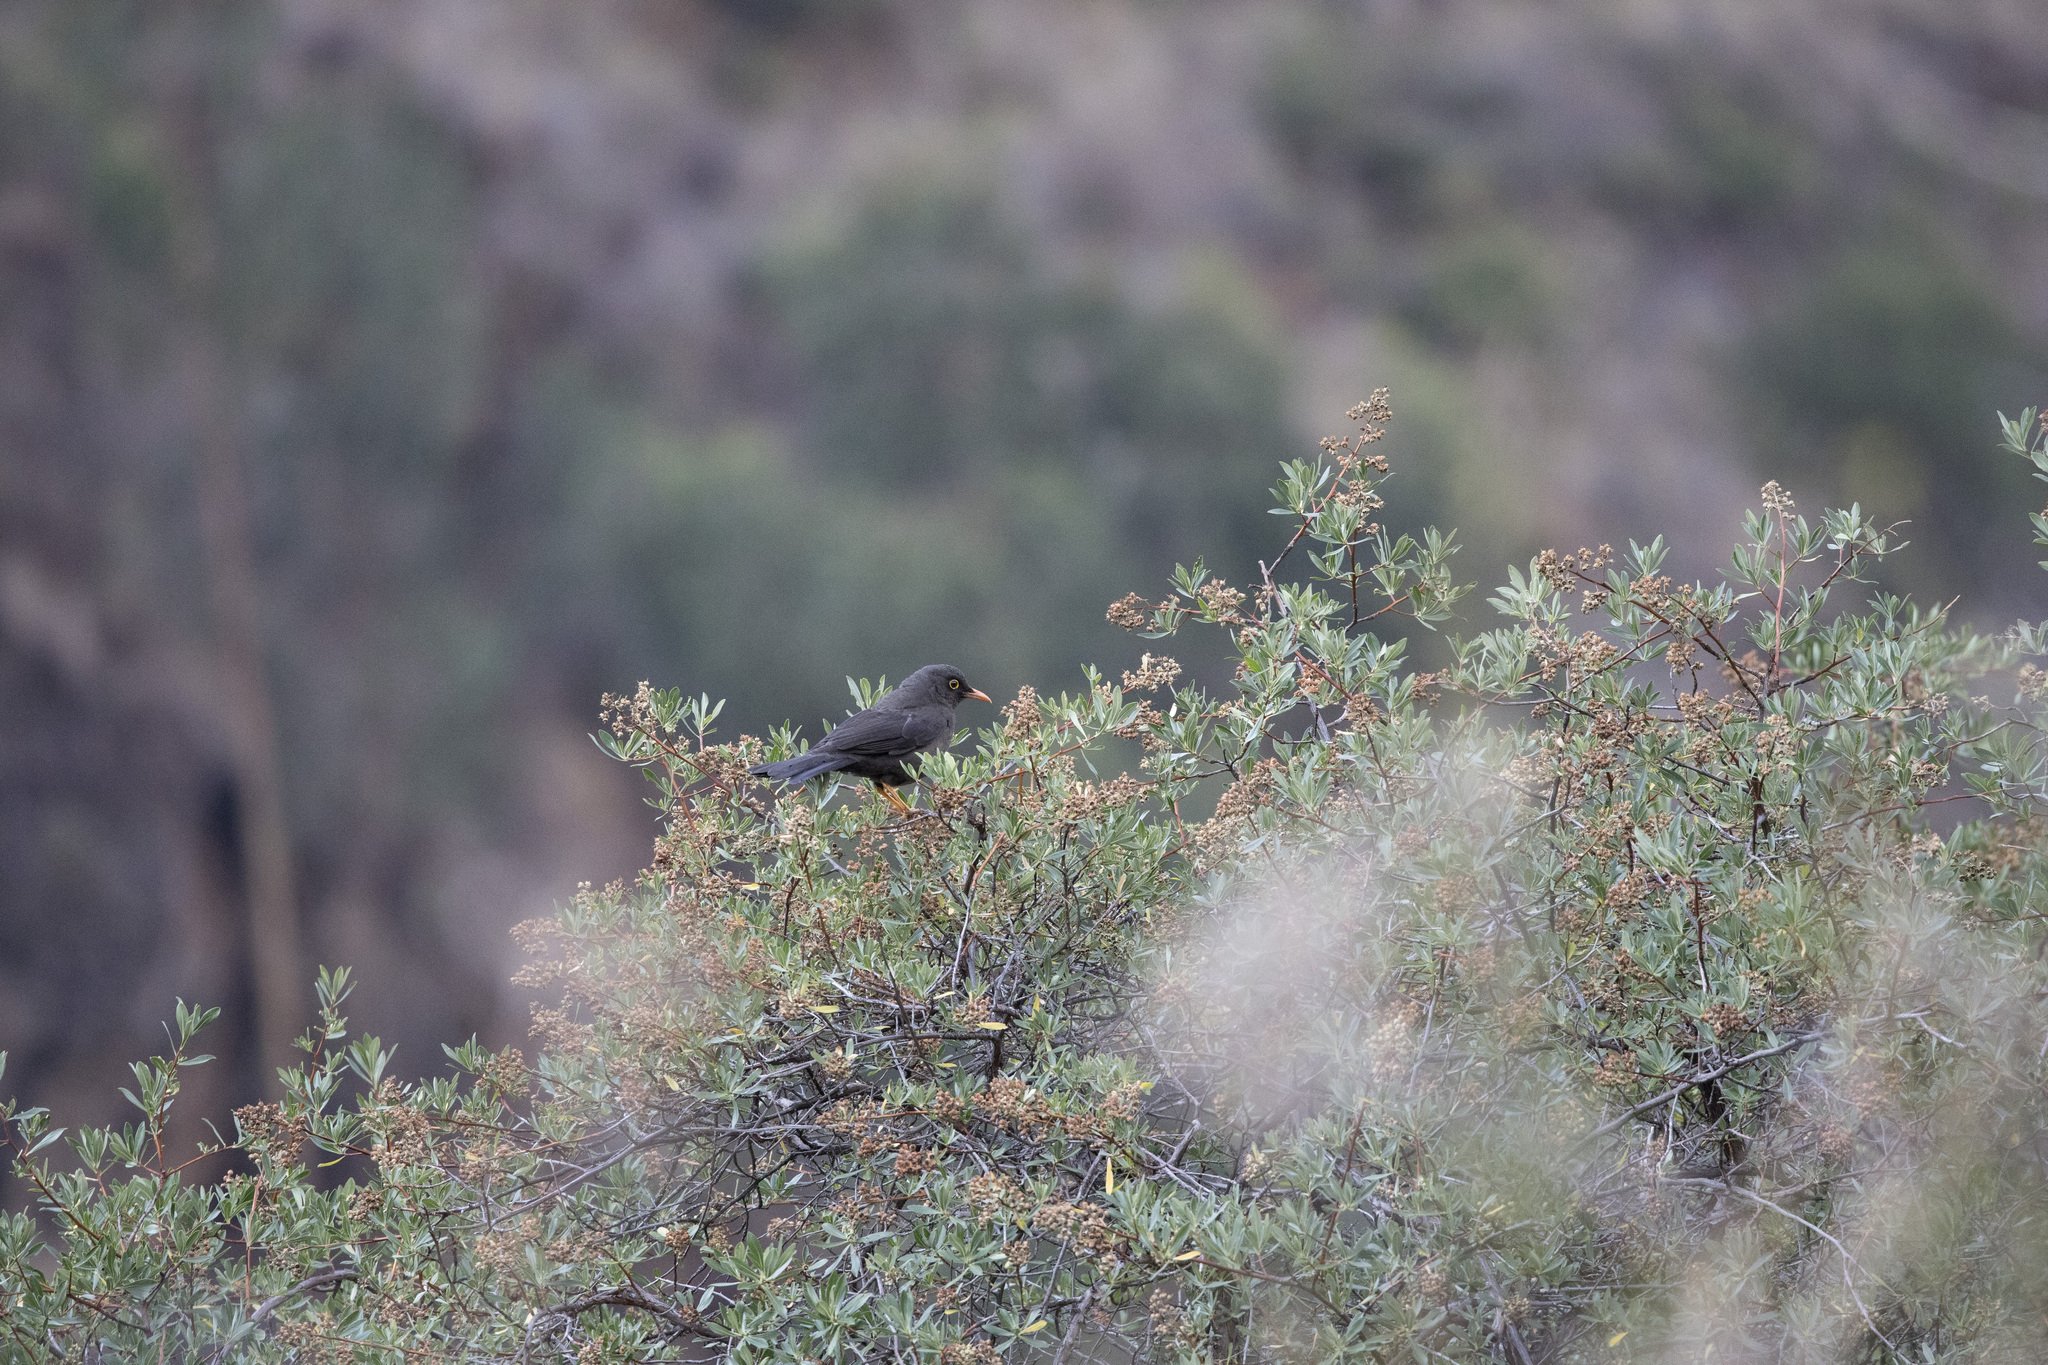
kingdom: Animalia
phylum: Chordata
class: Aves
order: Passeriformes
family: Turdidae
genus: Turdus
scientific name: Turdus fuscater
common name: Great thrush
